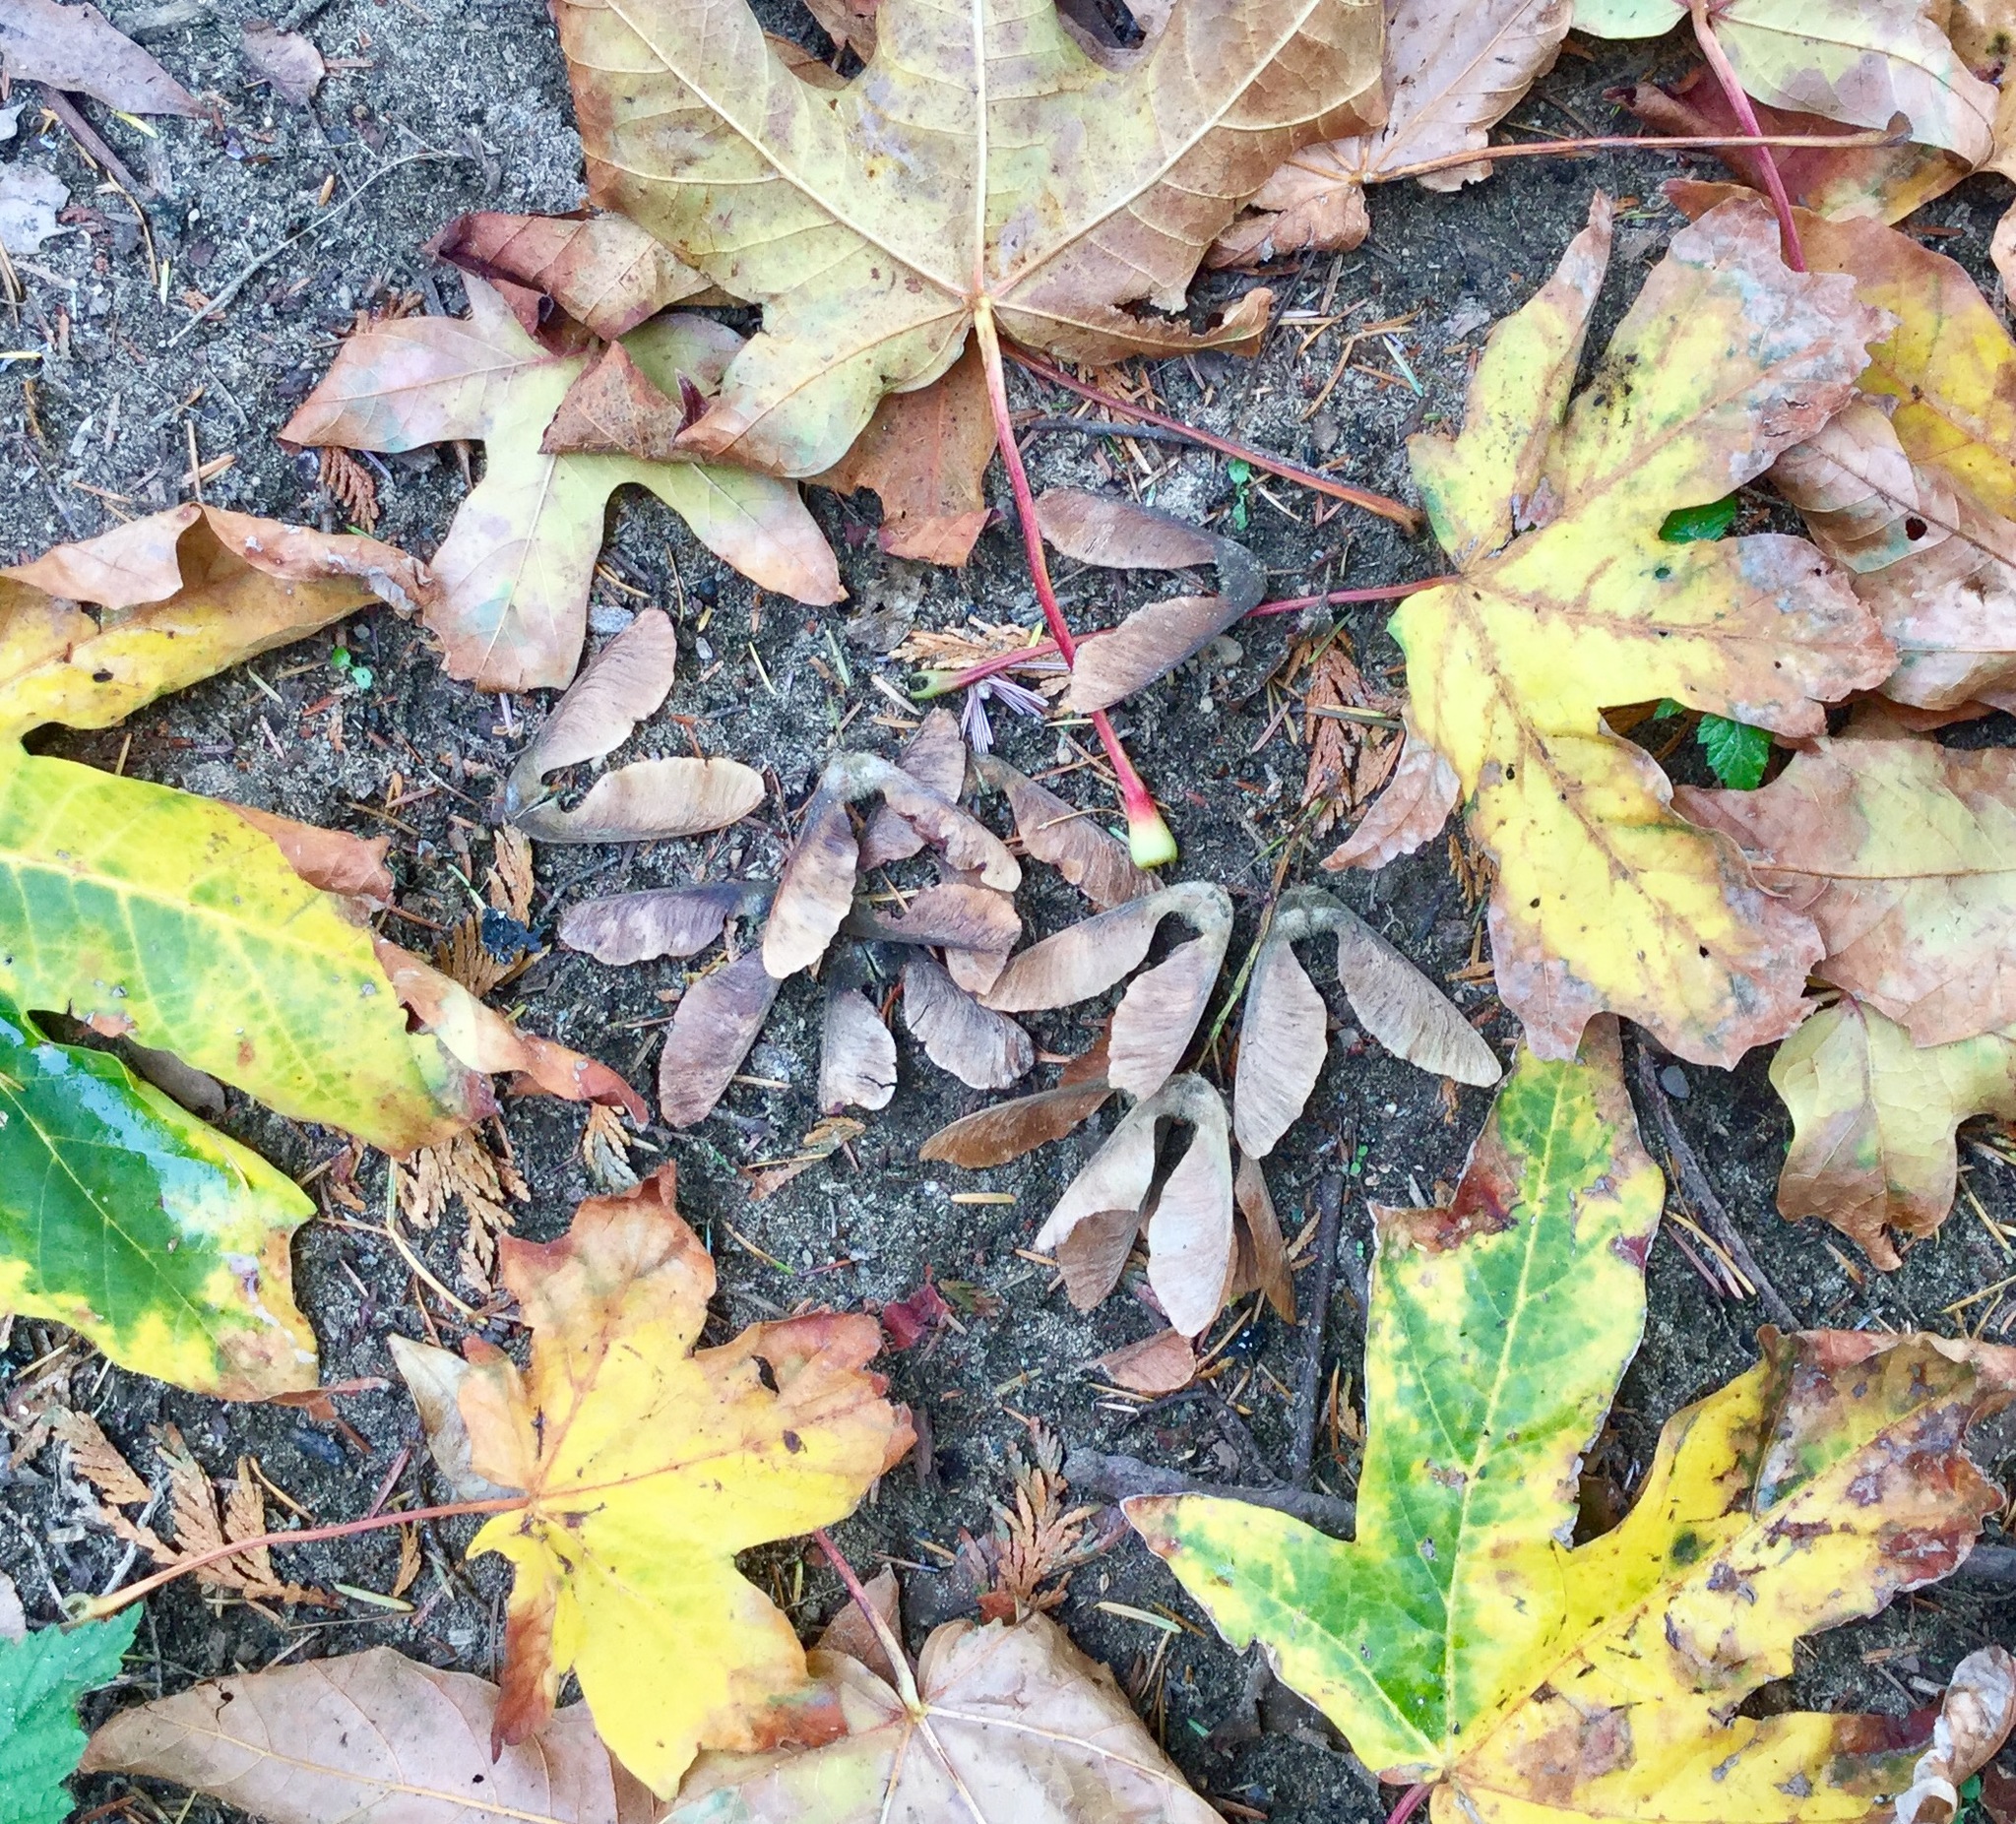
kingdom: Plantae
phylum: Tracheophyta
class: Magnoliopsida
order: Sapindales
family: Sapindaceae
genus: Acer
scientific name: Acer macrophyllum
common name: Oregon maple
